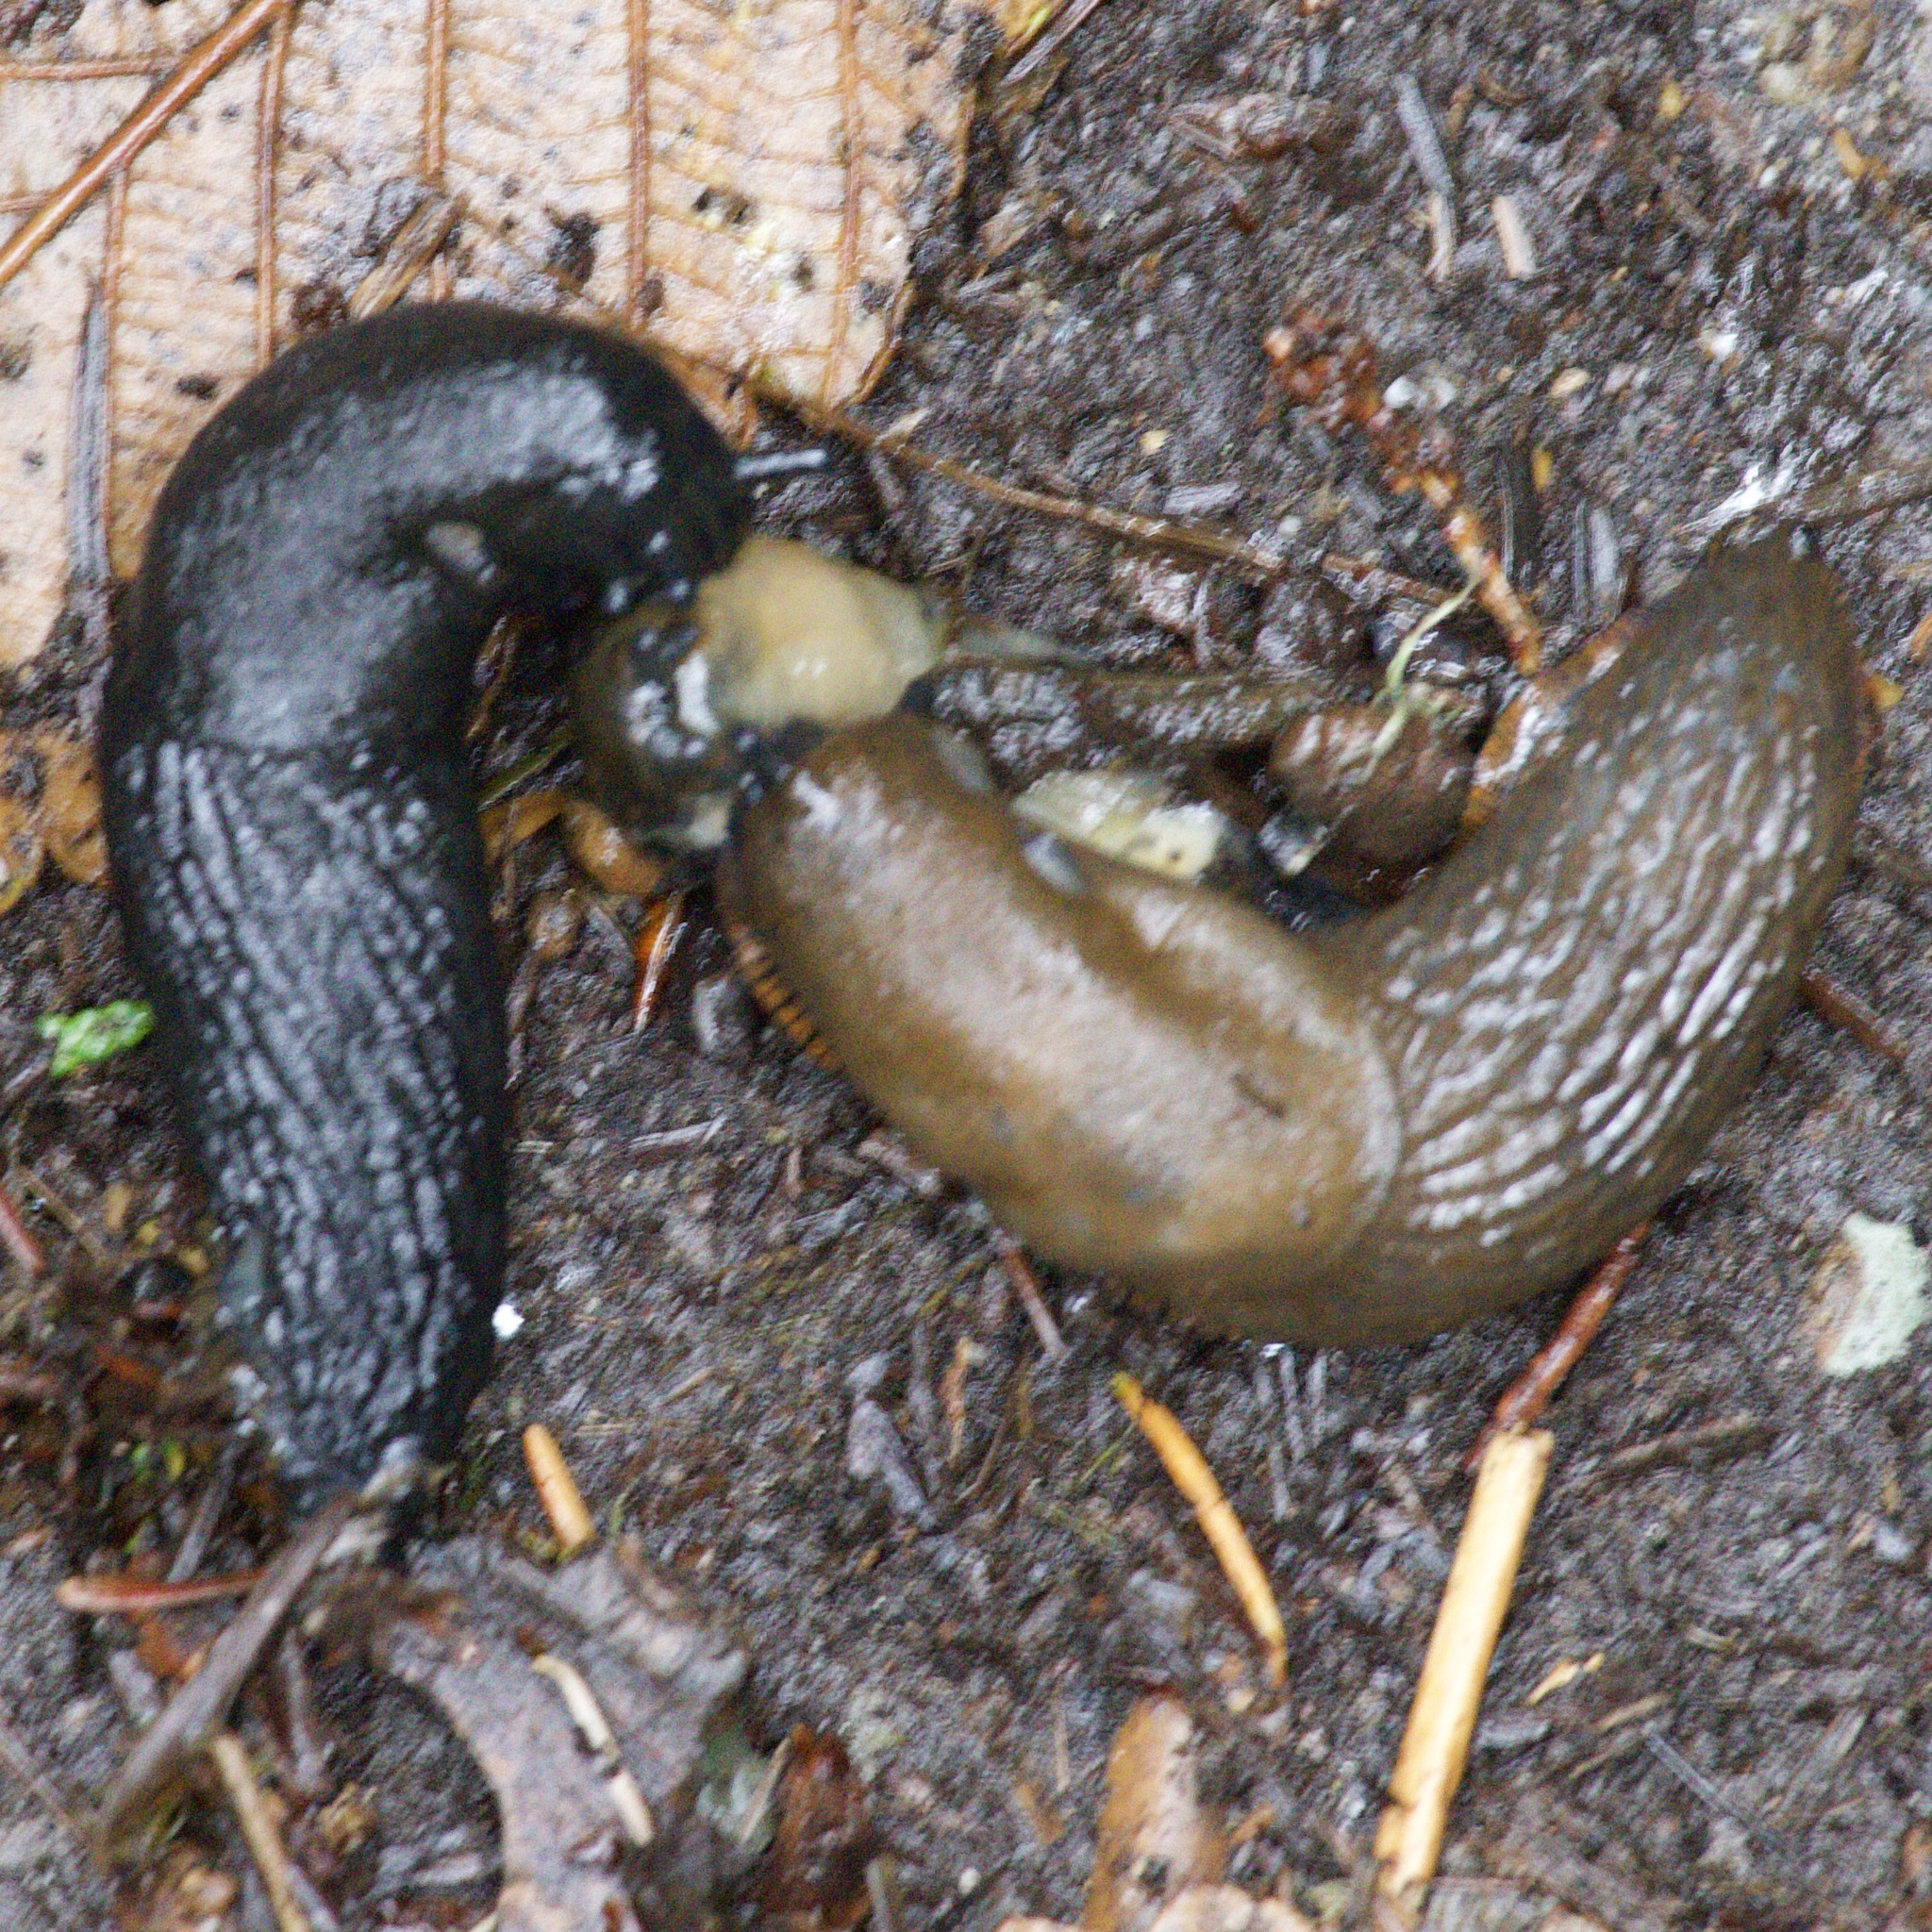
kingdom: Animalia
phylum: Mollusca
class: Gastropoda
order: Stylommatophora
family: Arionidae
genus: Arion
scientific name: Arion
